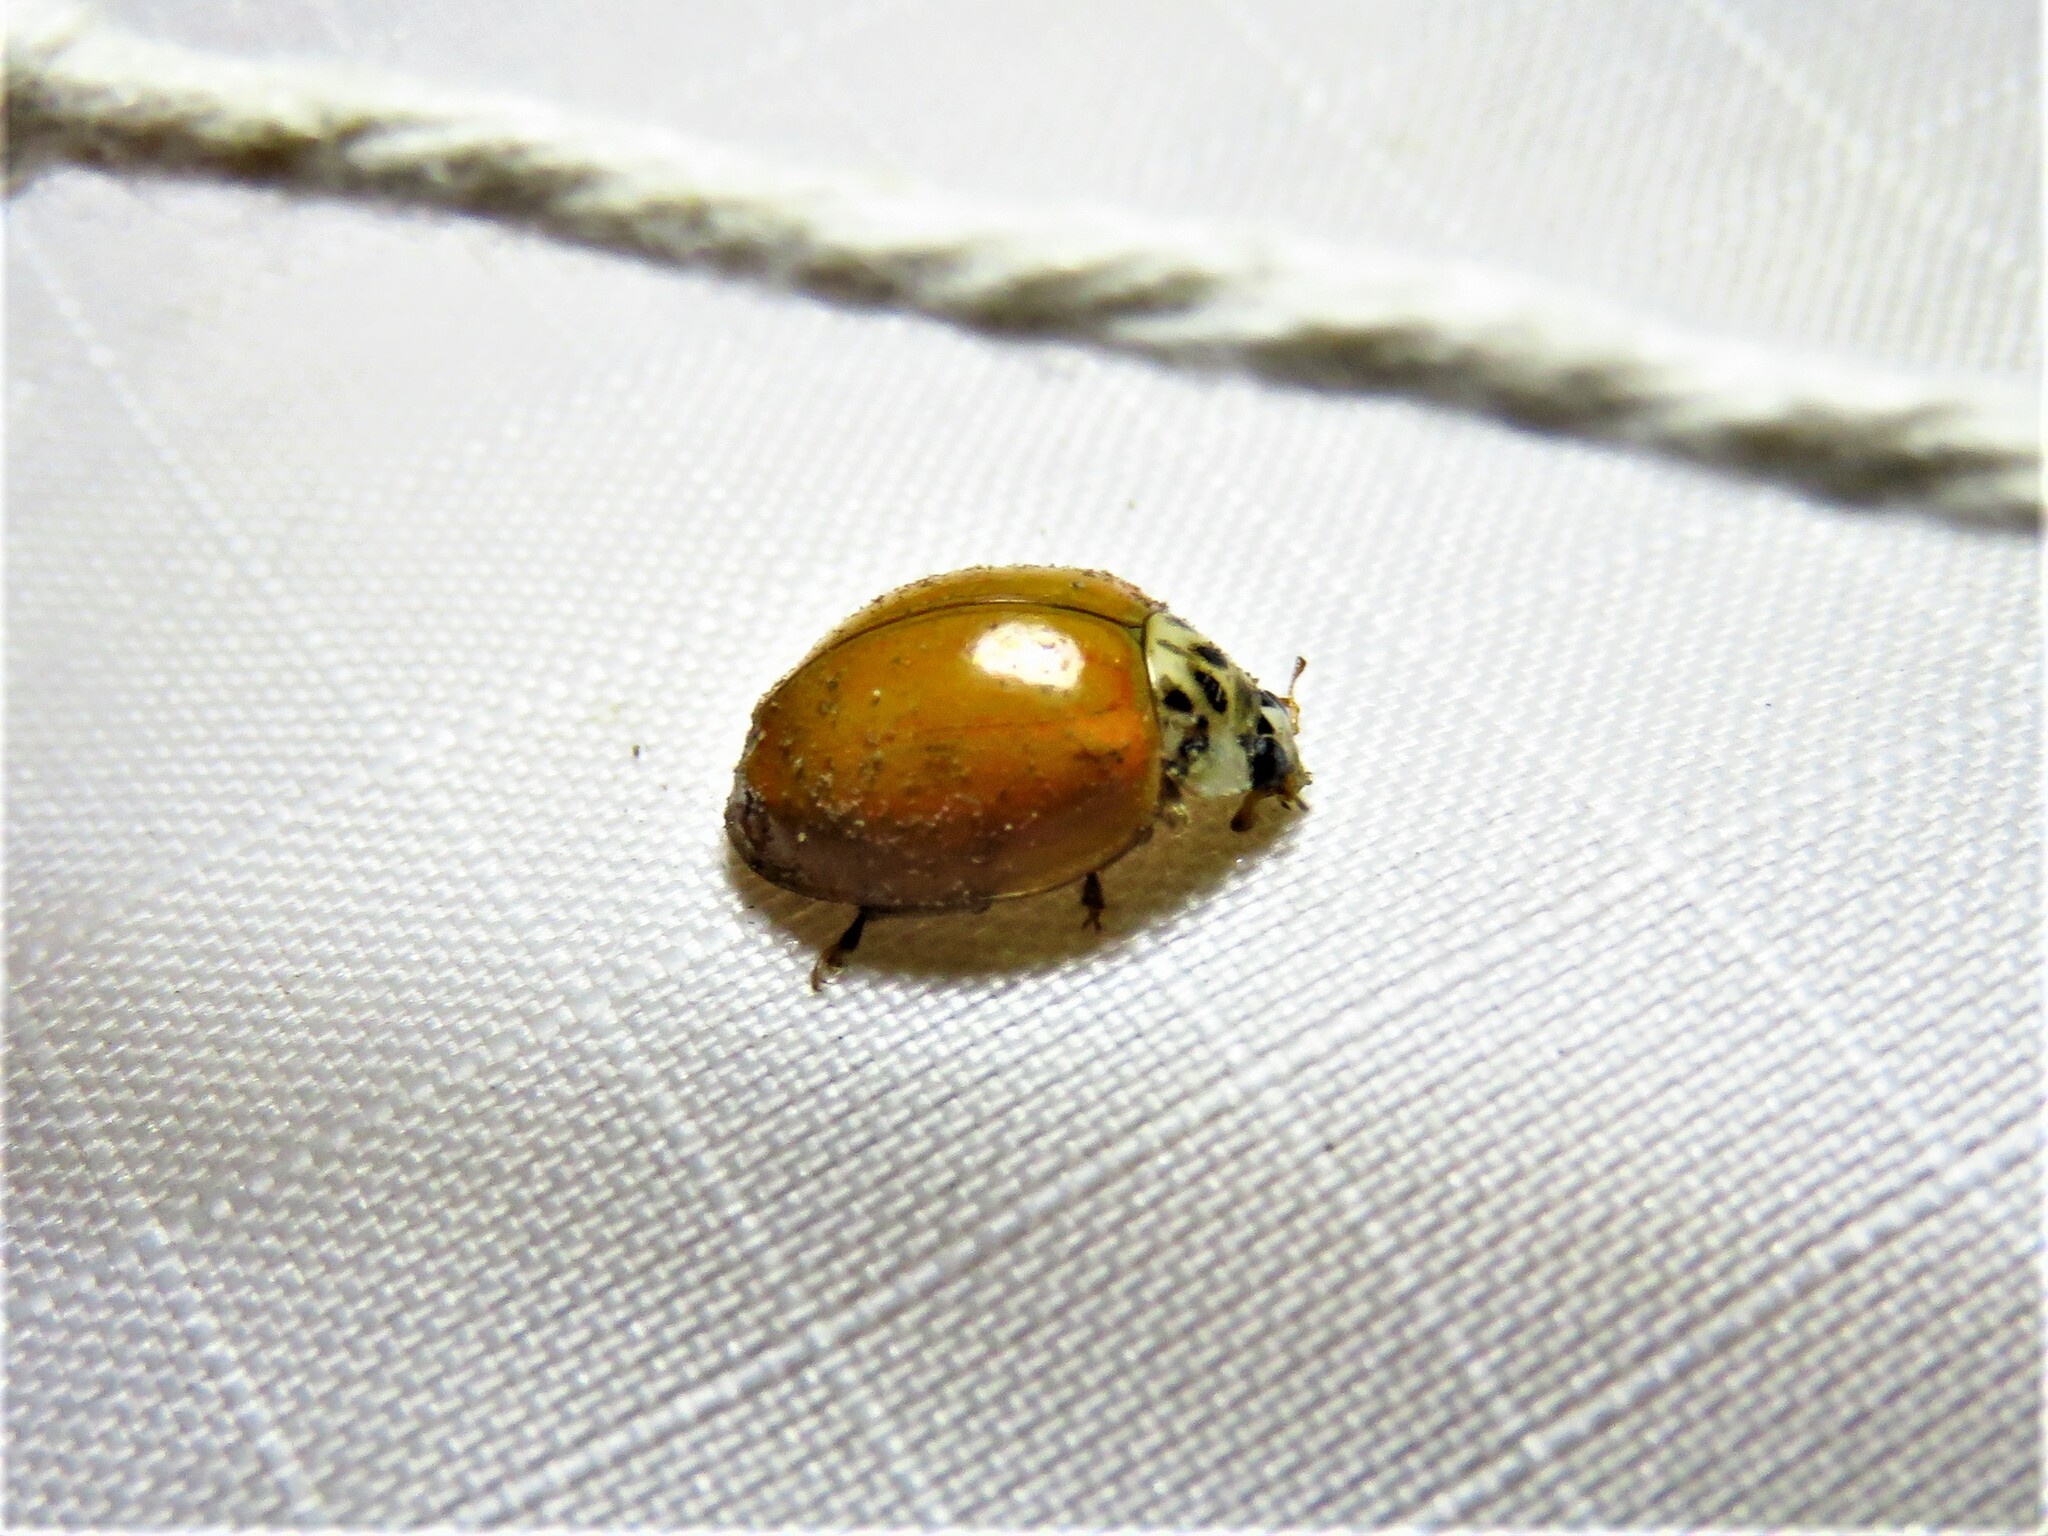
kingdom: Animalia
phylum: Arthropoda
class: Insecta
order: Coleoptera
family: Coccinellidae
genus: Harmonia
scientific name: Harmonia axyridis
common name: Harlequin ladybird
